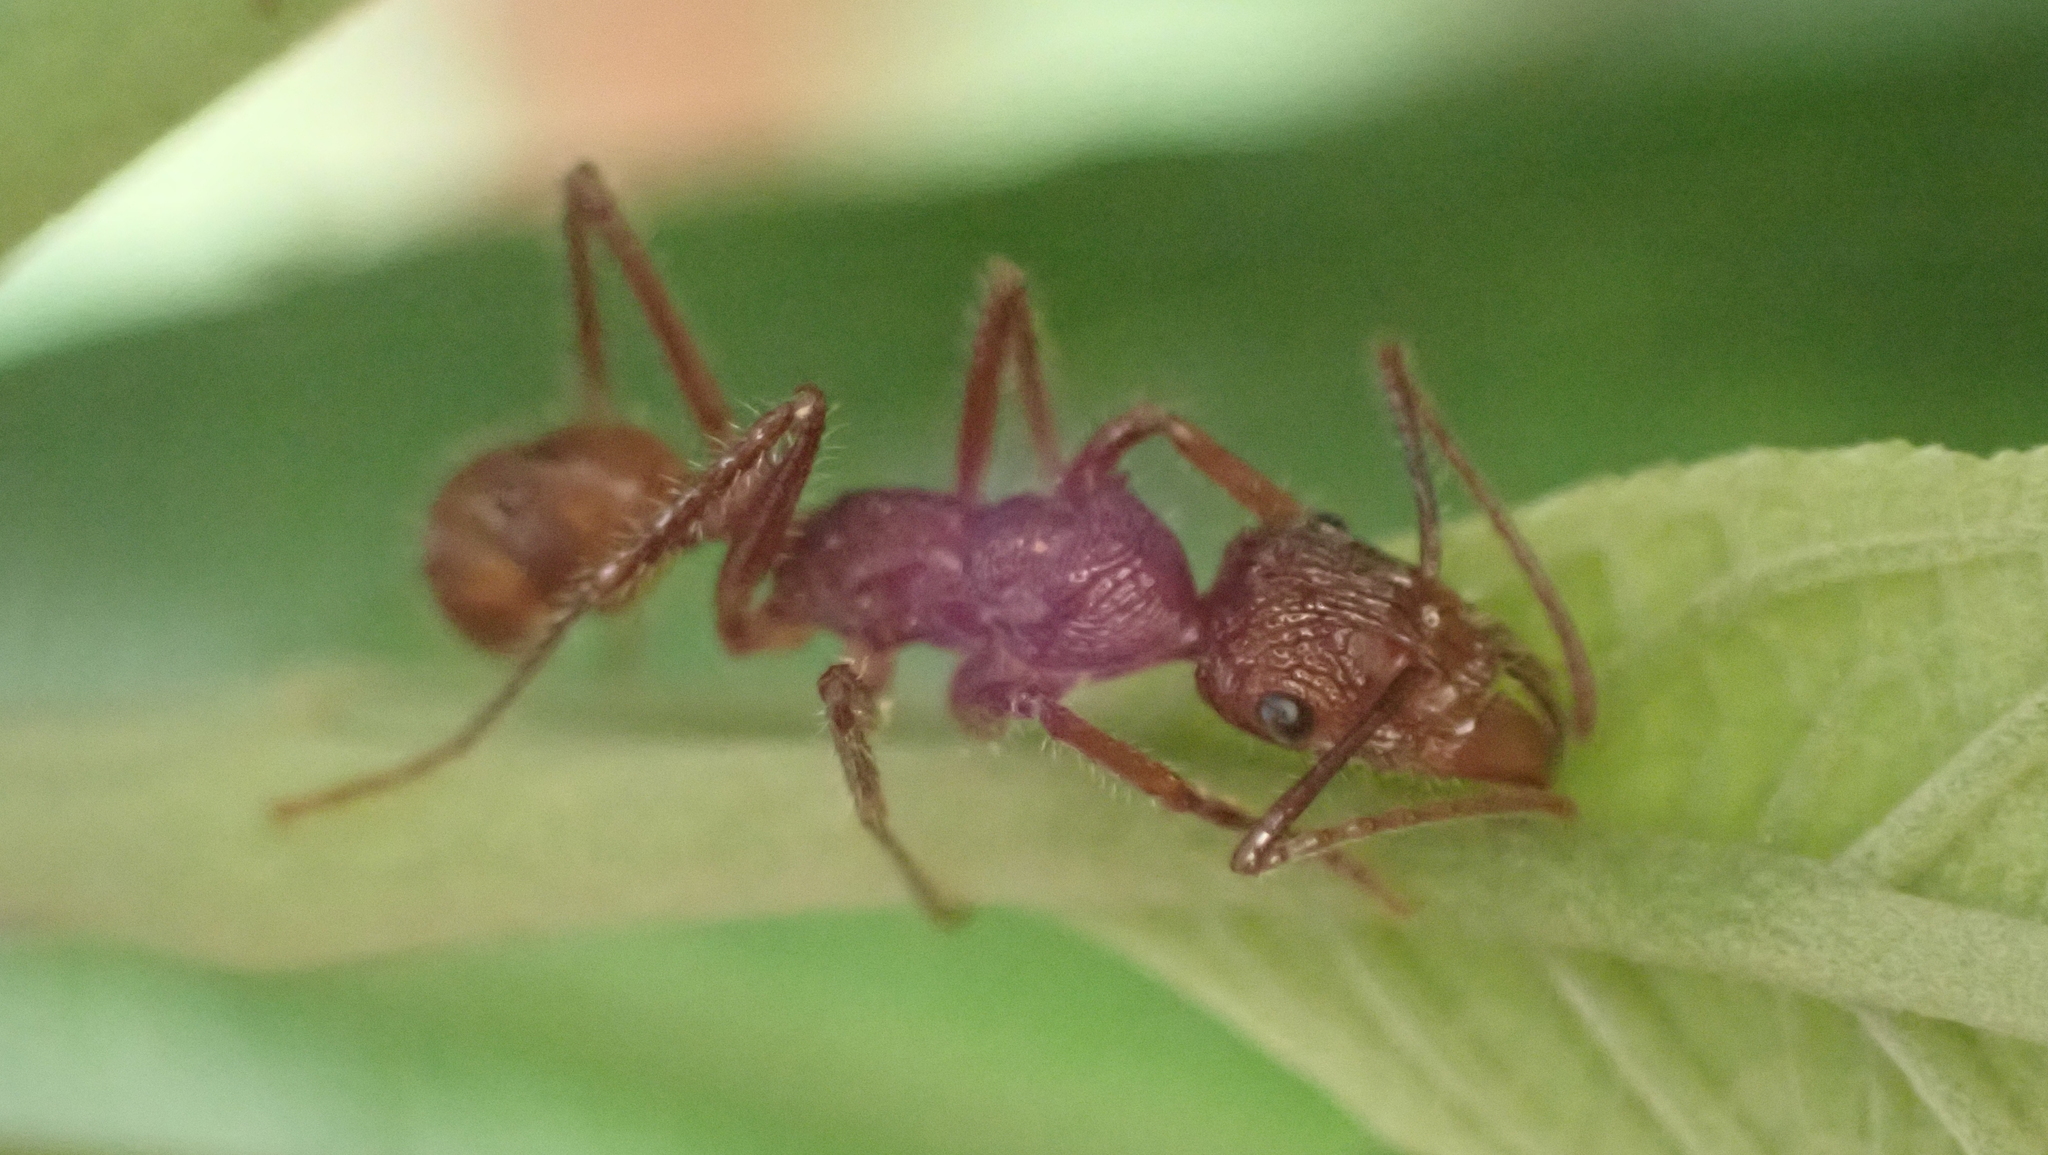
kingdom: Animalia
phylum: Arthropoda
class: Insecta
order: Hymenoptera
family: Formicidae
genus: Ectatomma
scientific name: Ectatomma tuberculatum
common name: Ant
